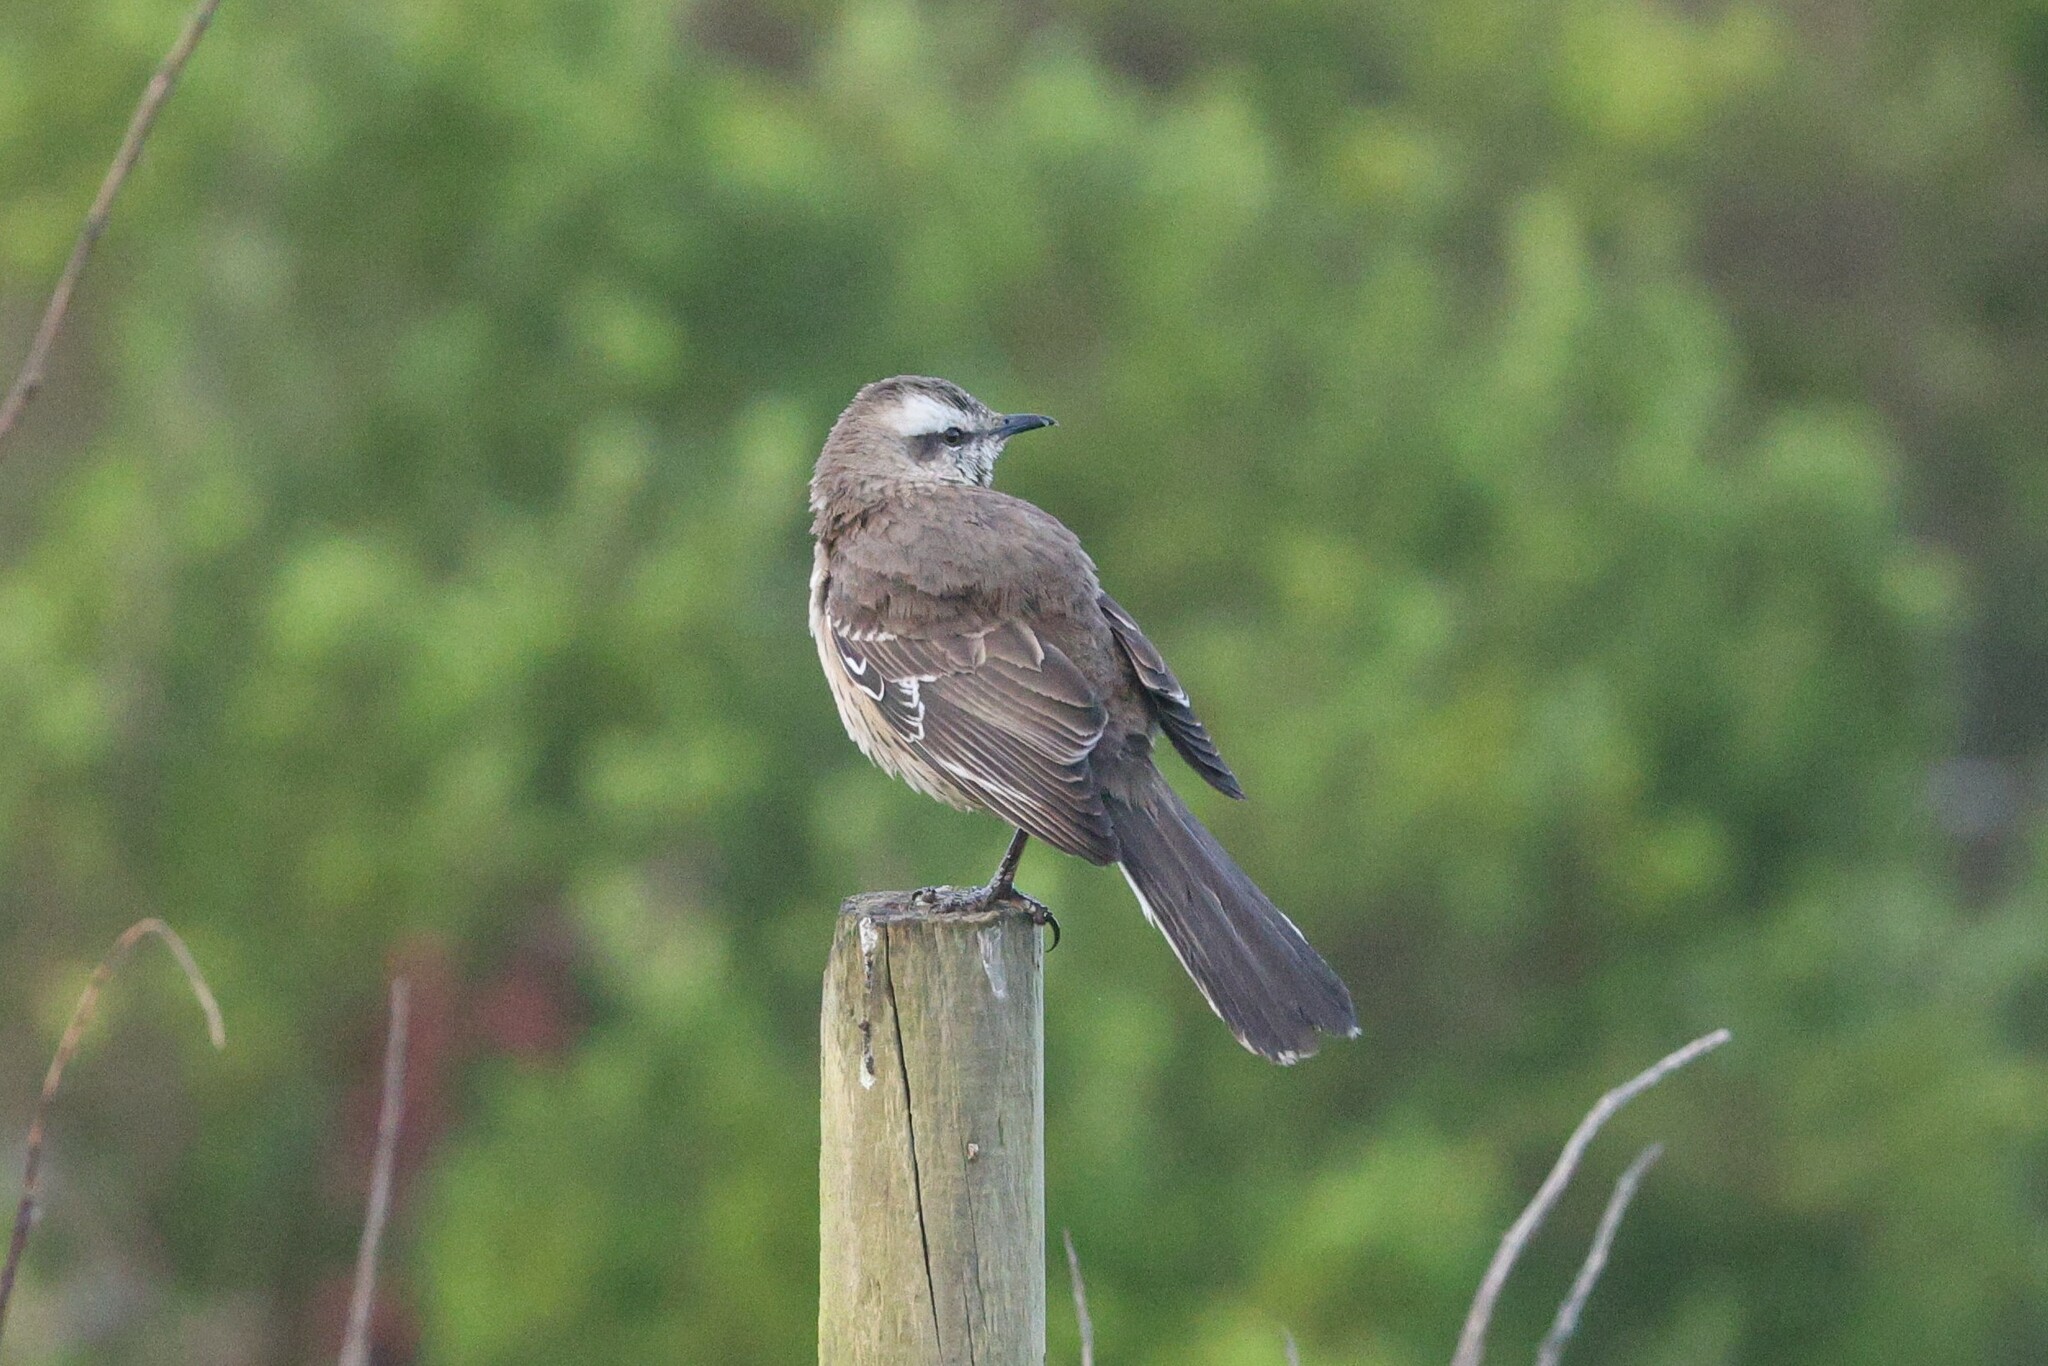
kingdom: Animalia
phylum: Chordata
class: Aves
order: Passeriformes
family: Mimidae
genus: Mimus
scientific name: Mimus thenca
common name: Chilean mockingbird
